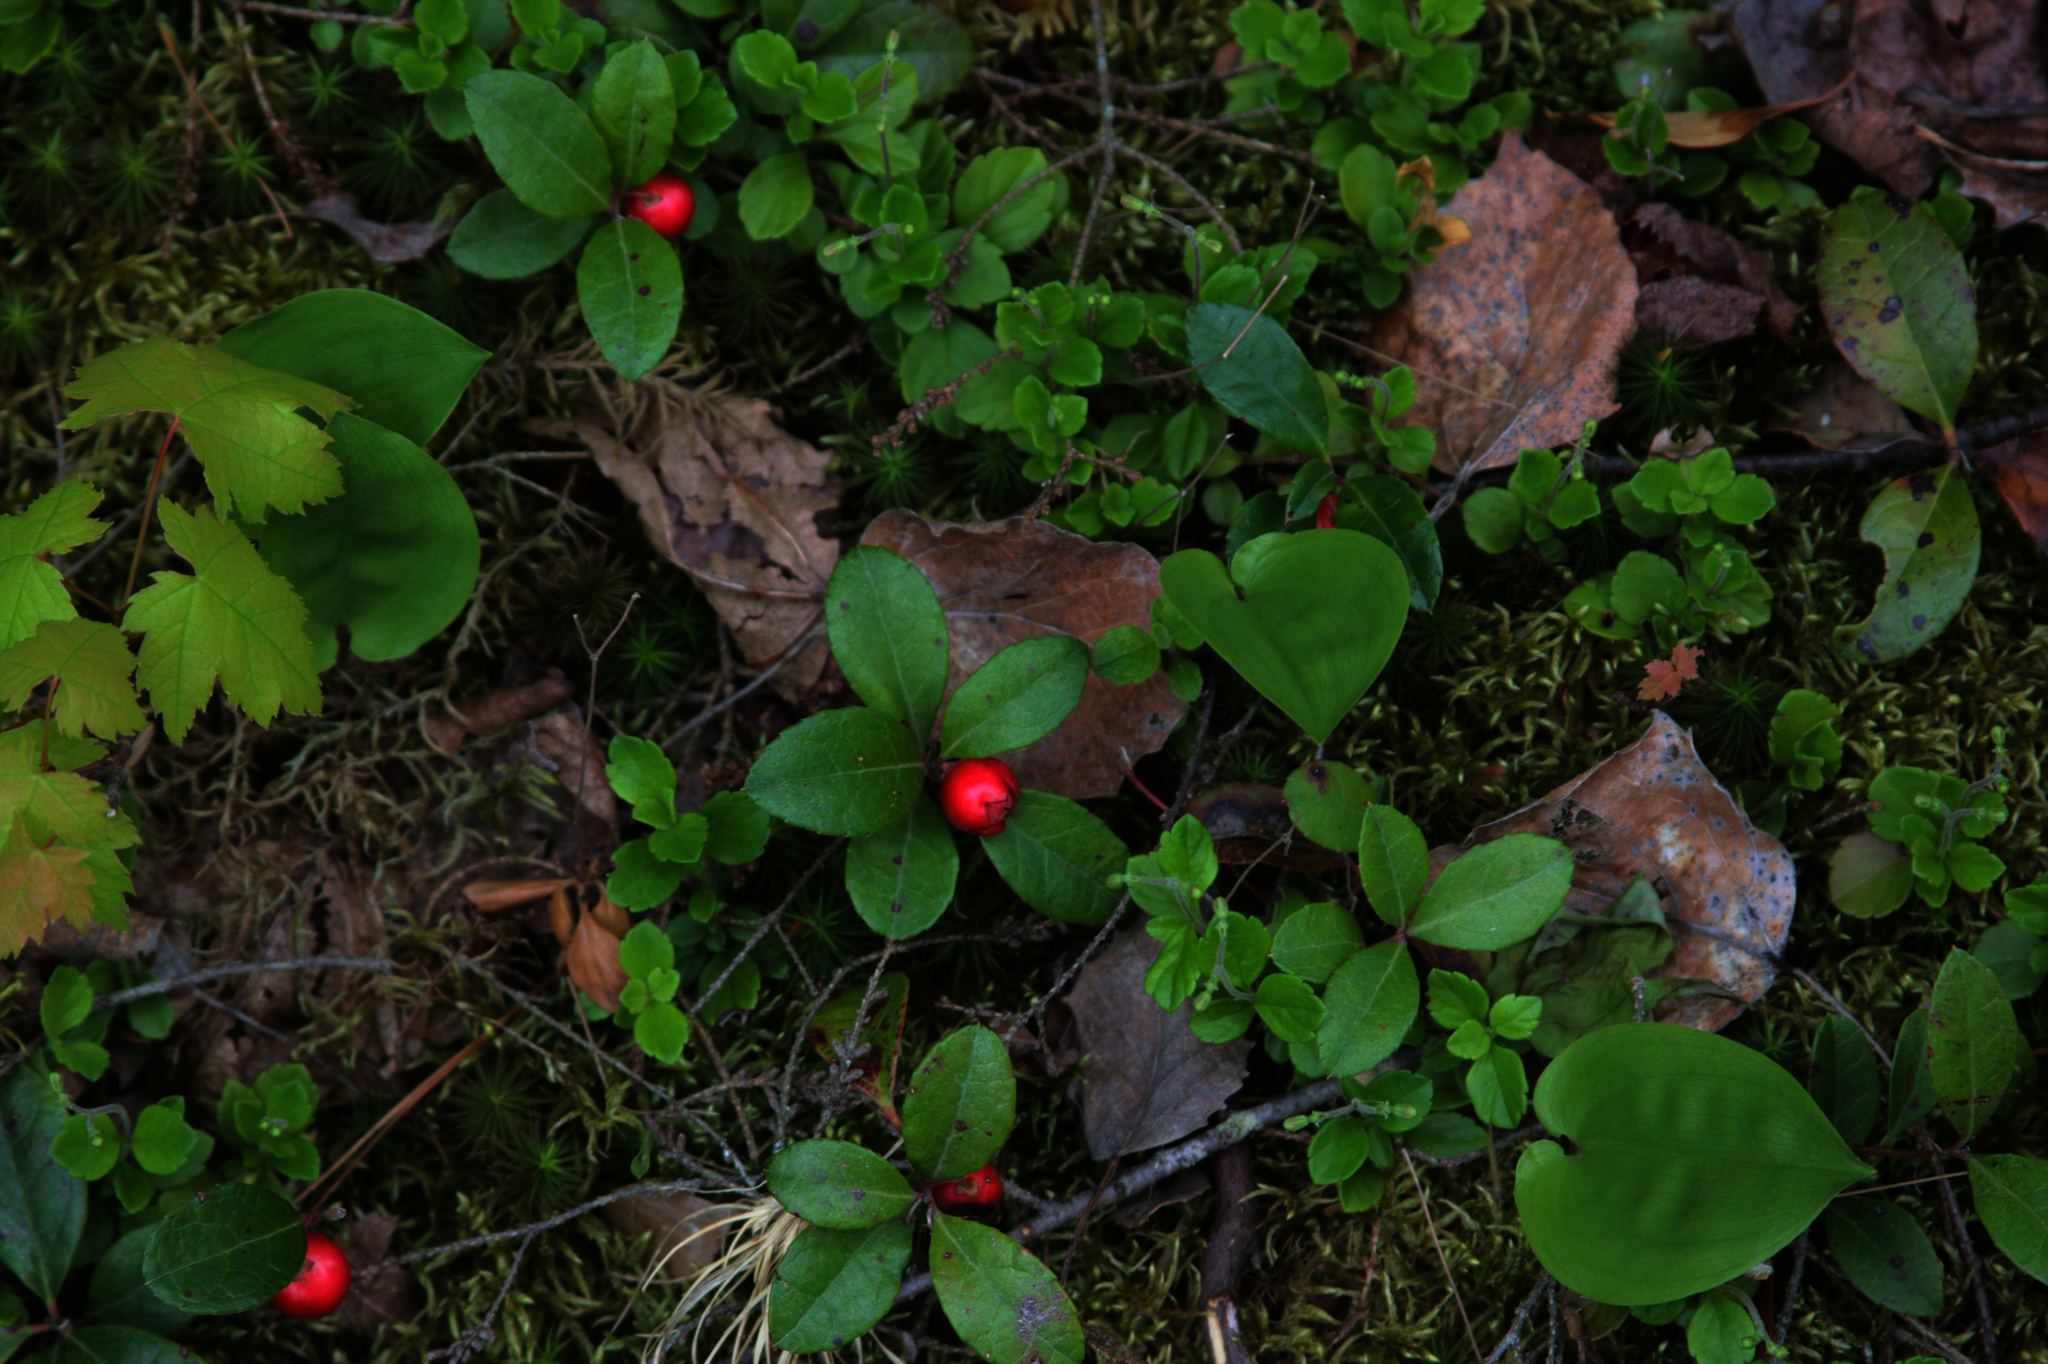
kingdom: Plantae
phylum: Tracheophyta
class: Magnoliopsida
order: Dipsacales
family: Caprifoliaceae
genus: Linnaea
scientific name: Linnaea borealis
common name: Twinflower
